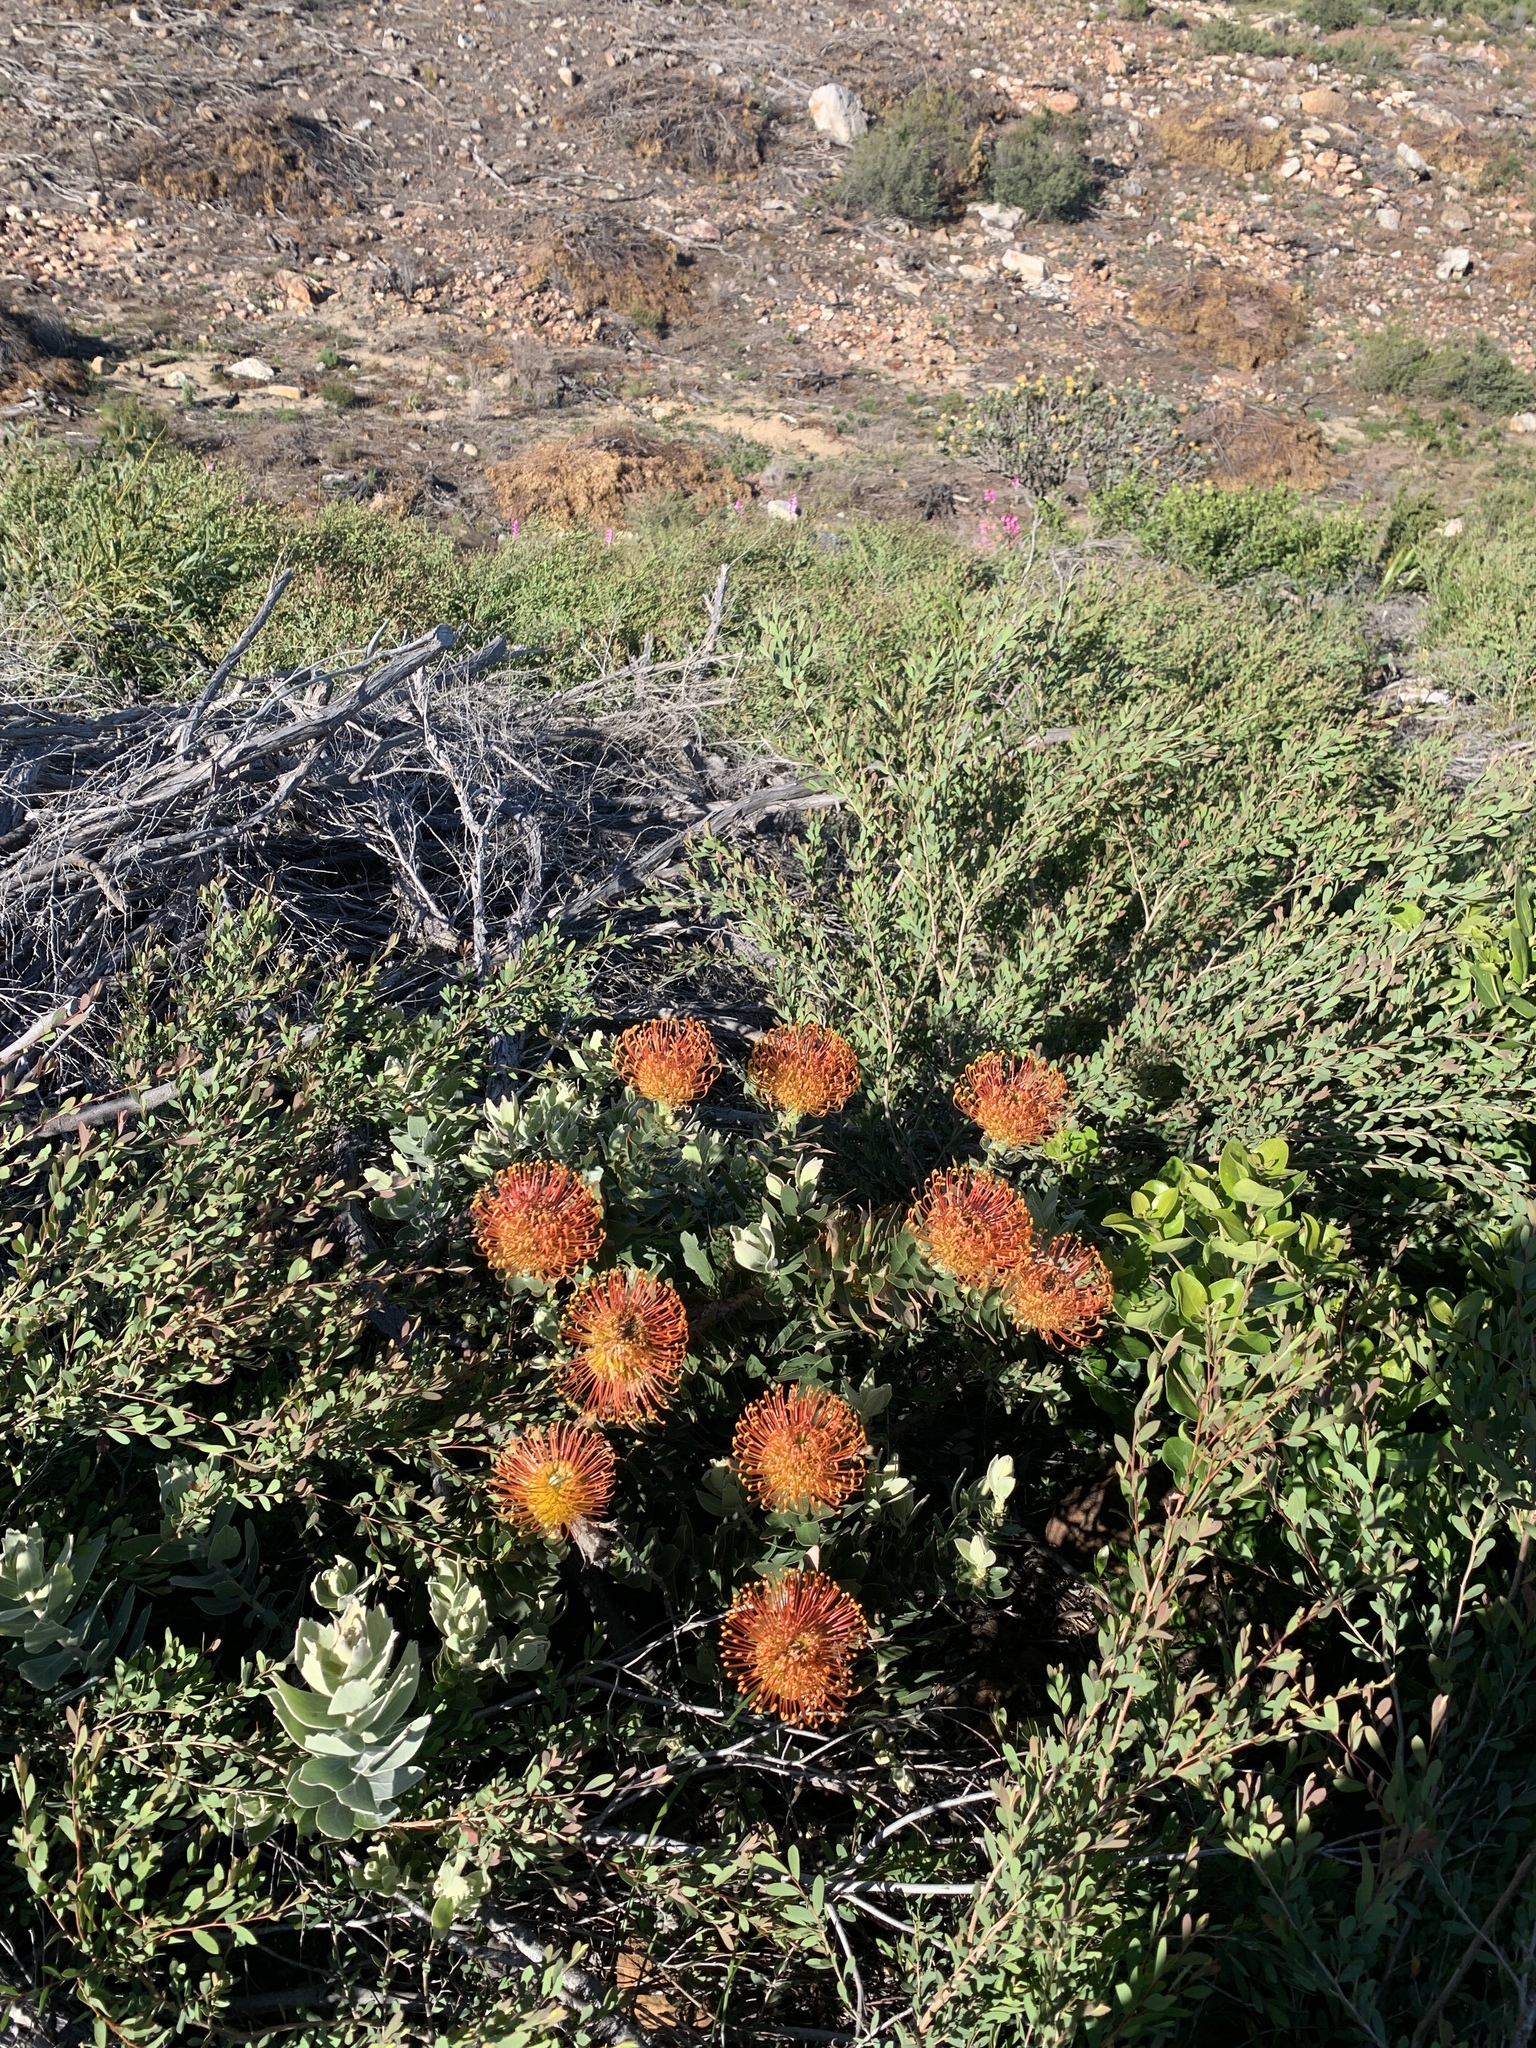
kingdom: Plantae
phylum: Tracheophyta
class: Magnoliopsida
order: Proteales
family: Proteaceae
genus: Leucospermum
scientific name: Leucospermum cordifolium
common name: Red pincushion-protea
